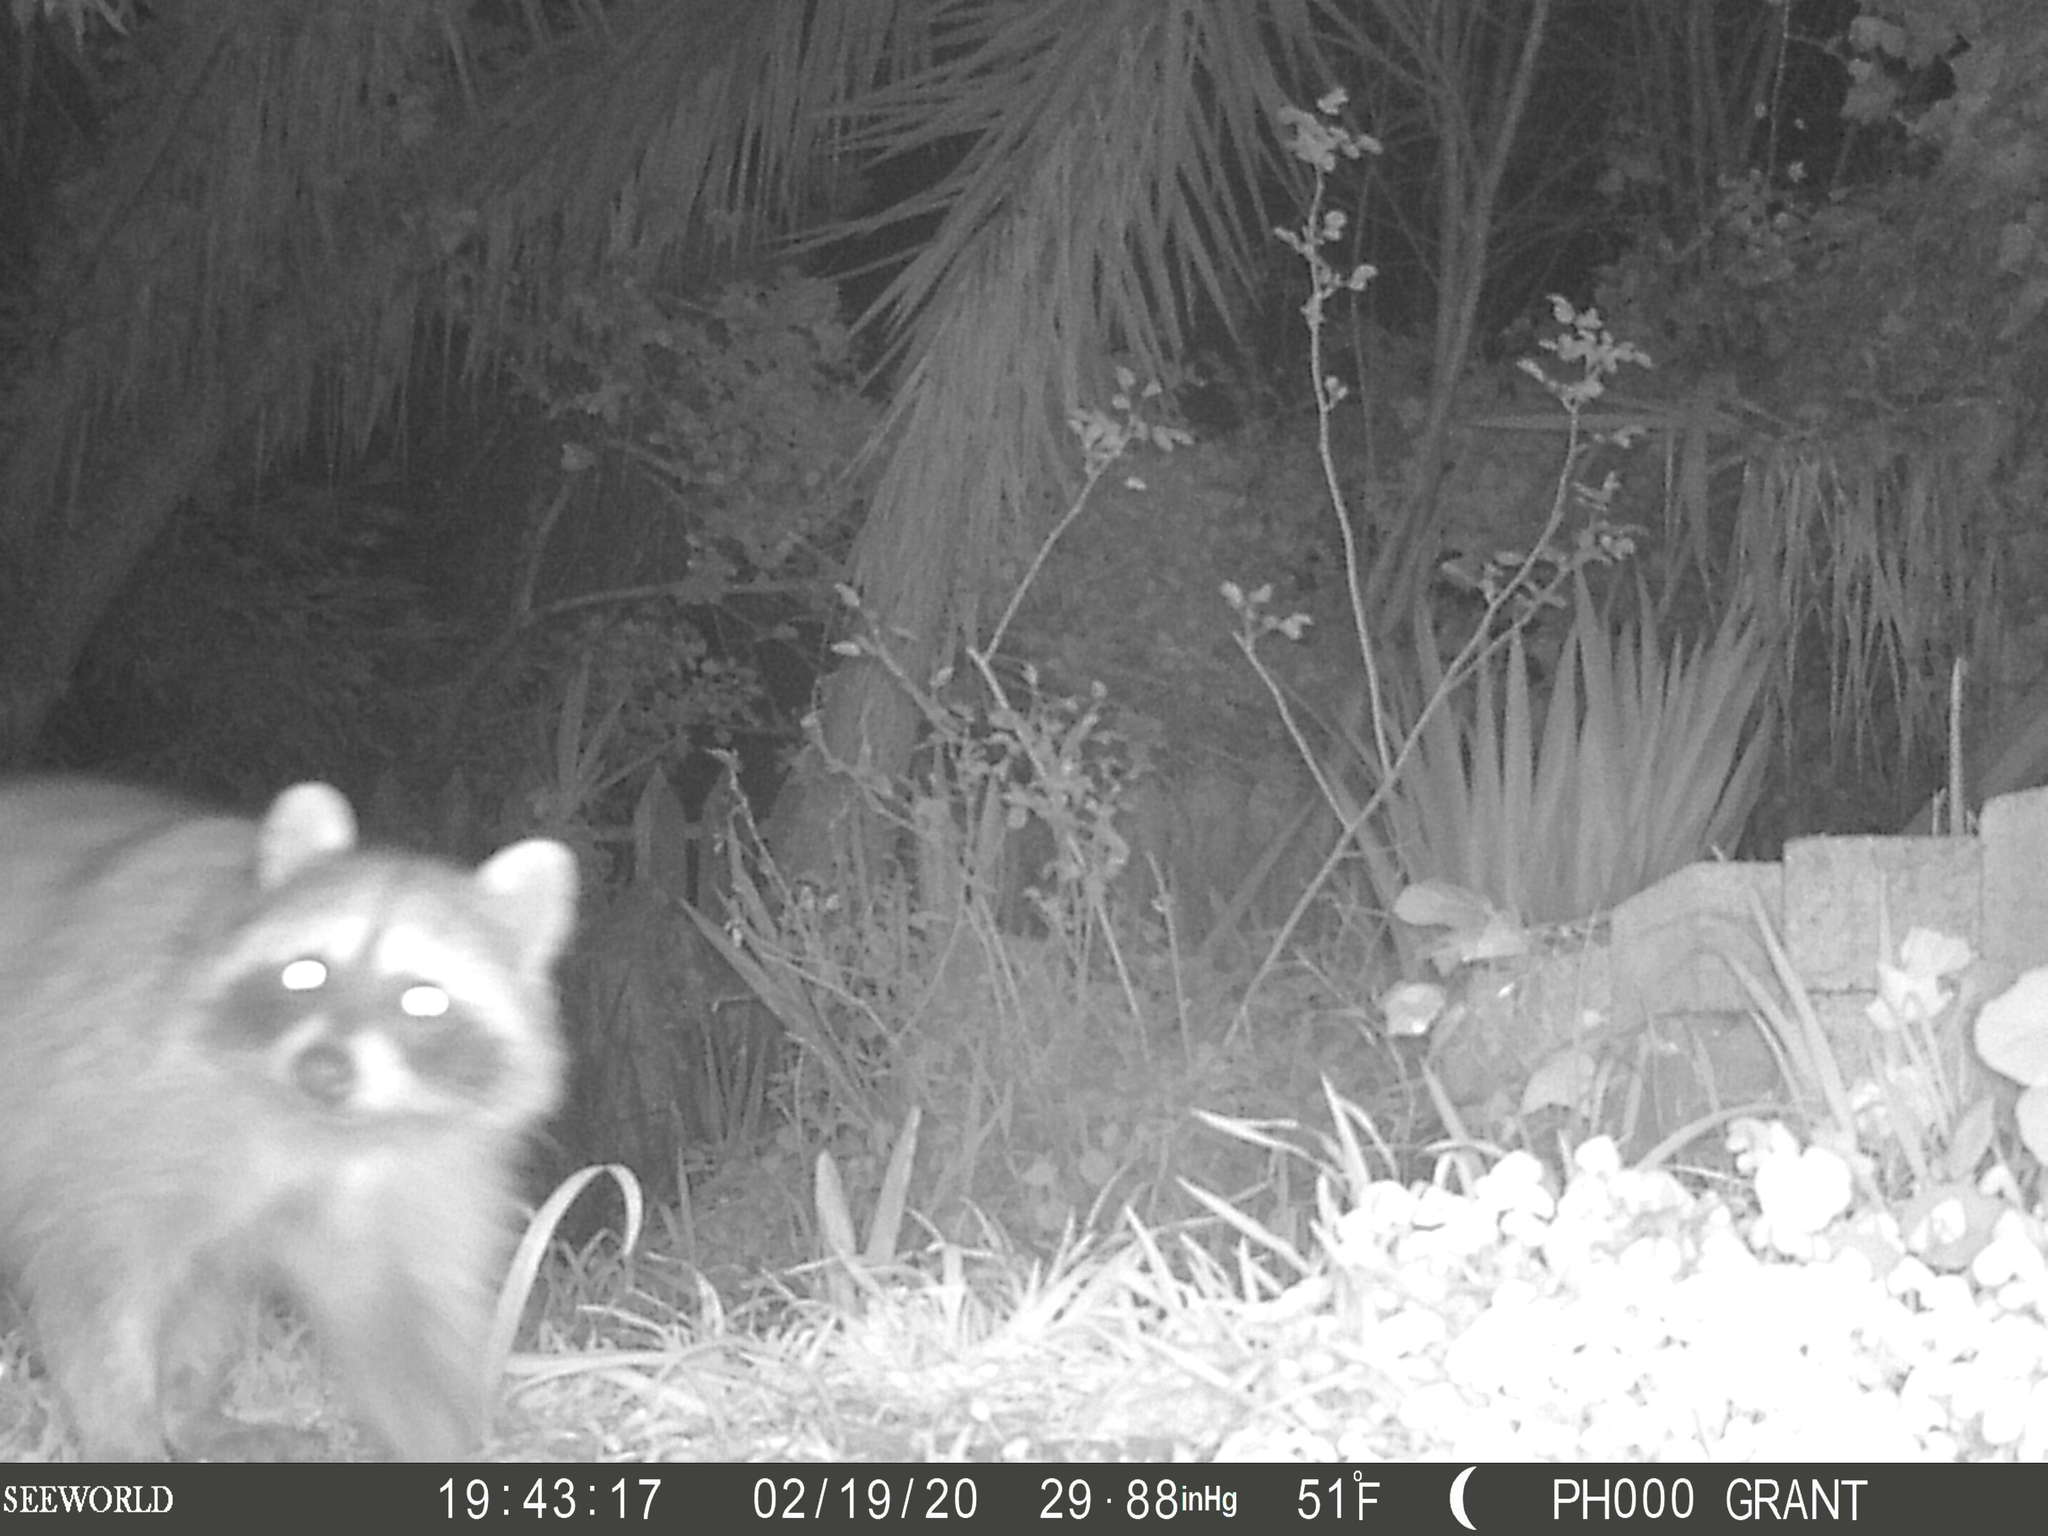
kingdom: Animalia
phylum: Chordata
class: Mammalia
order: Carnivora
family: Procyonidae
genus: Procyon
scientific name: Procyon lotor
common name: Raccoon
